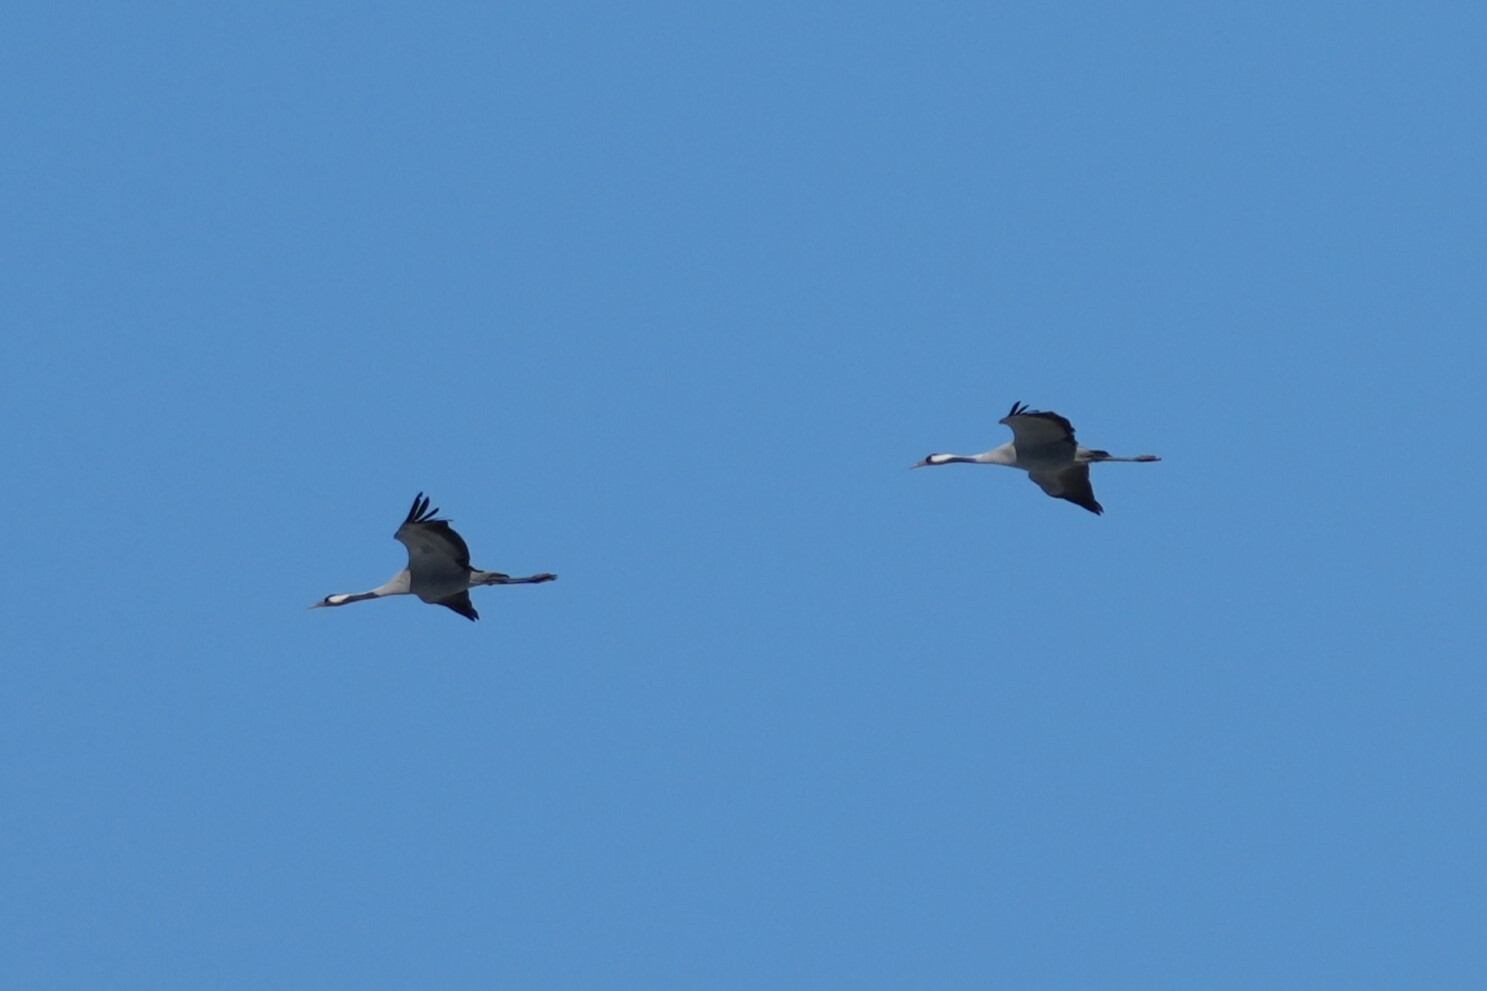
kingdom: Animalia
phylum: Chordata
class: Aves
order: Gruiformes
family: Gruidae
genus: Grus
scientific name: Grus grus
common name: Common crane
